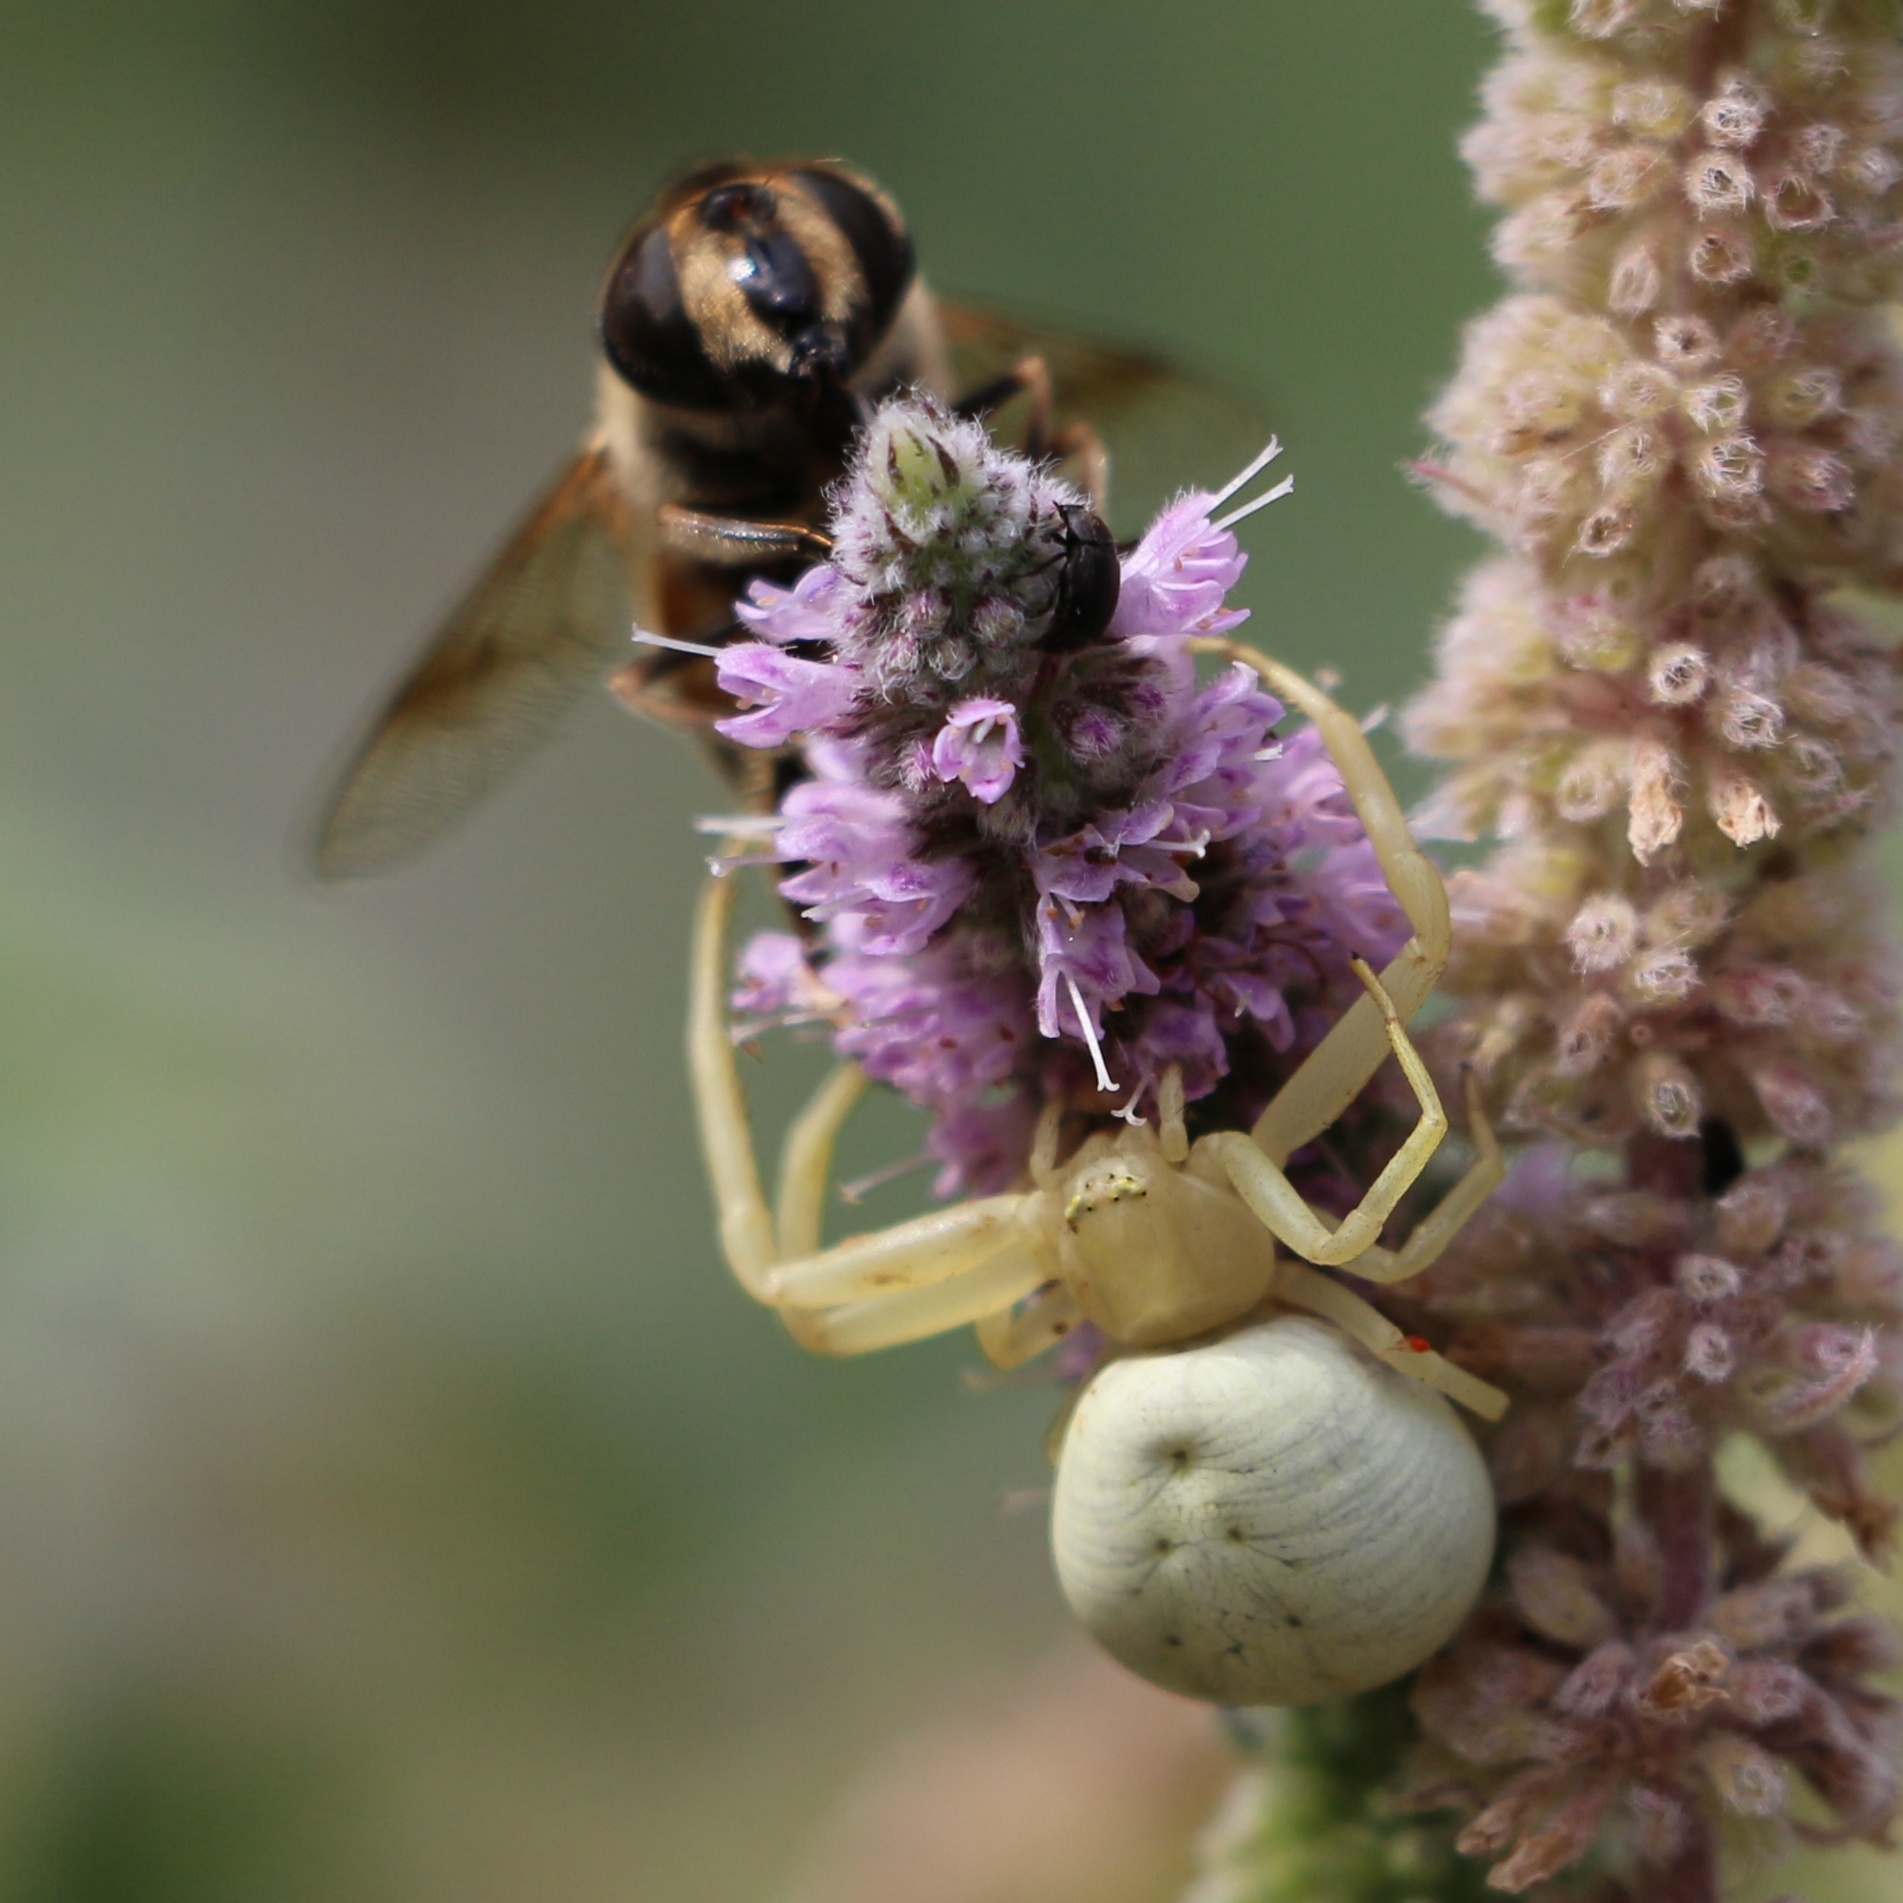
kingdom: Animalia
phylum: Arthropoda
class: Arachnida
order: Araneae
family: Thomisidae
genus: Misumena
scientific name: Misumena vatia
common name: Goldenrod crab spider
